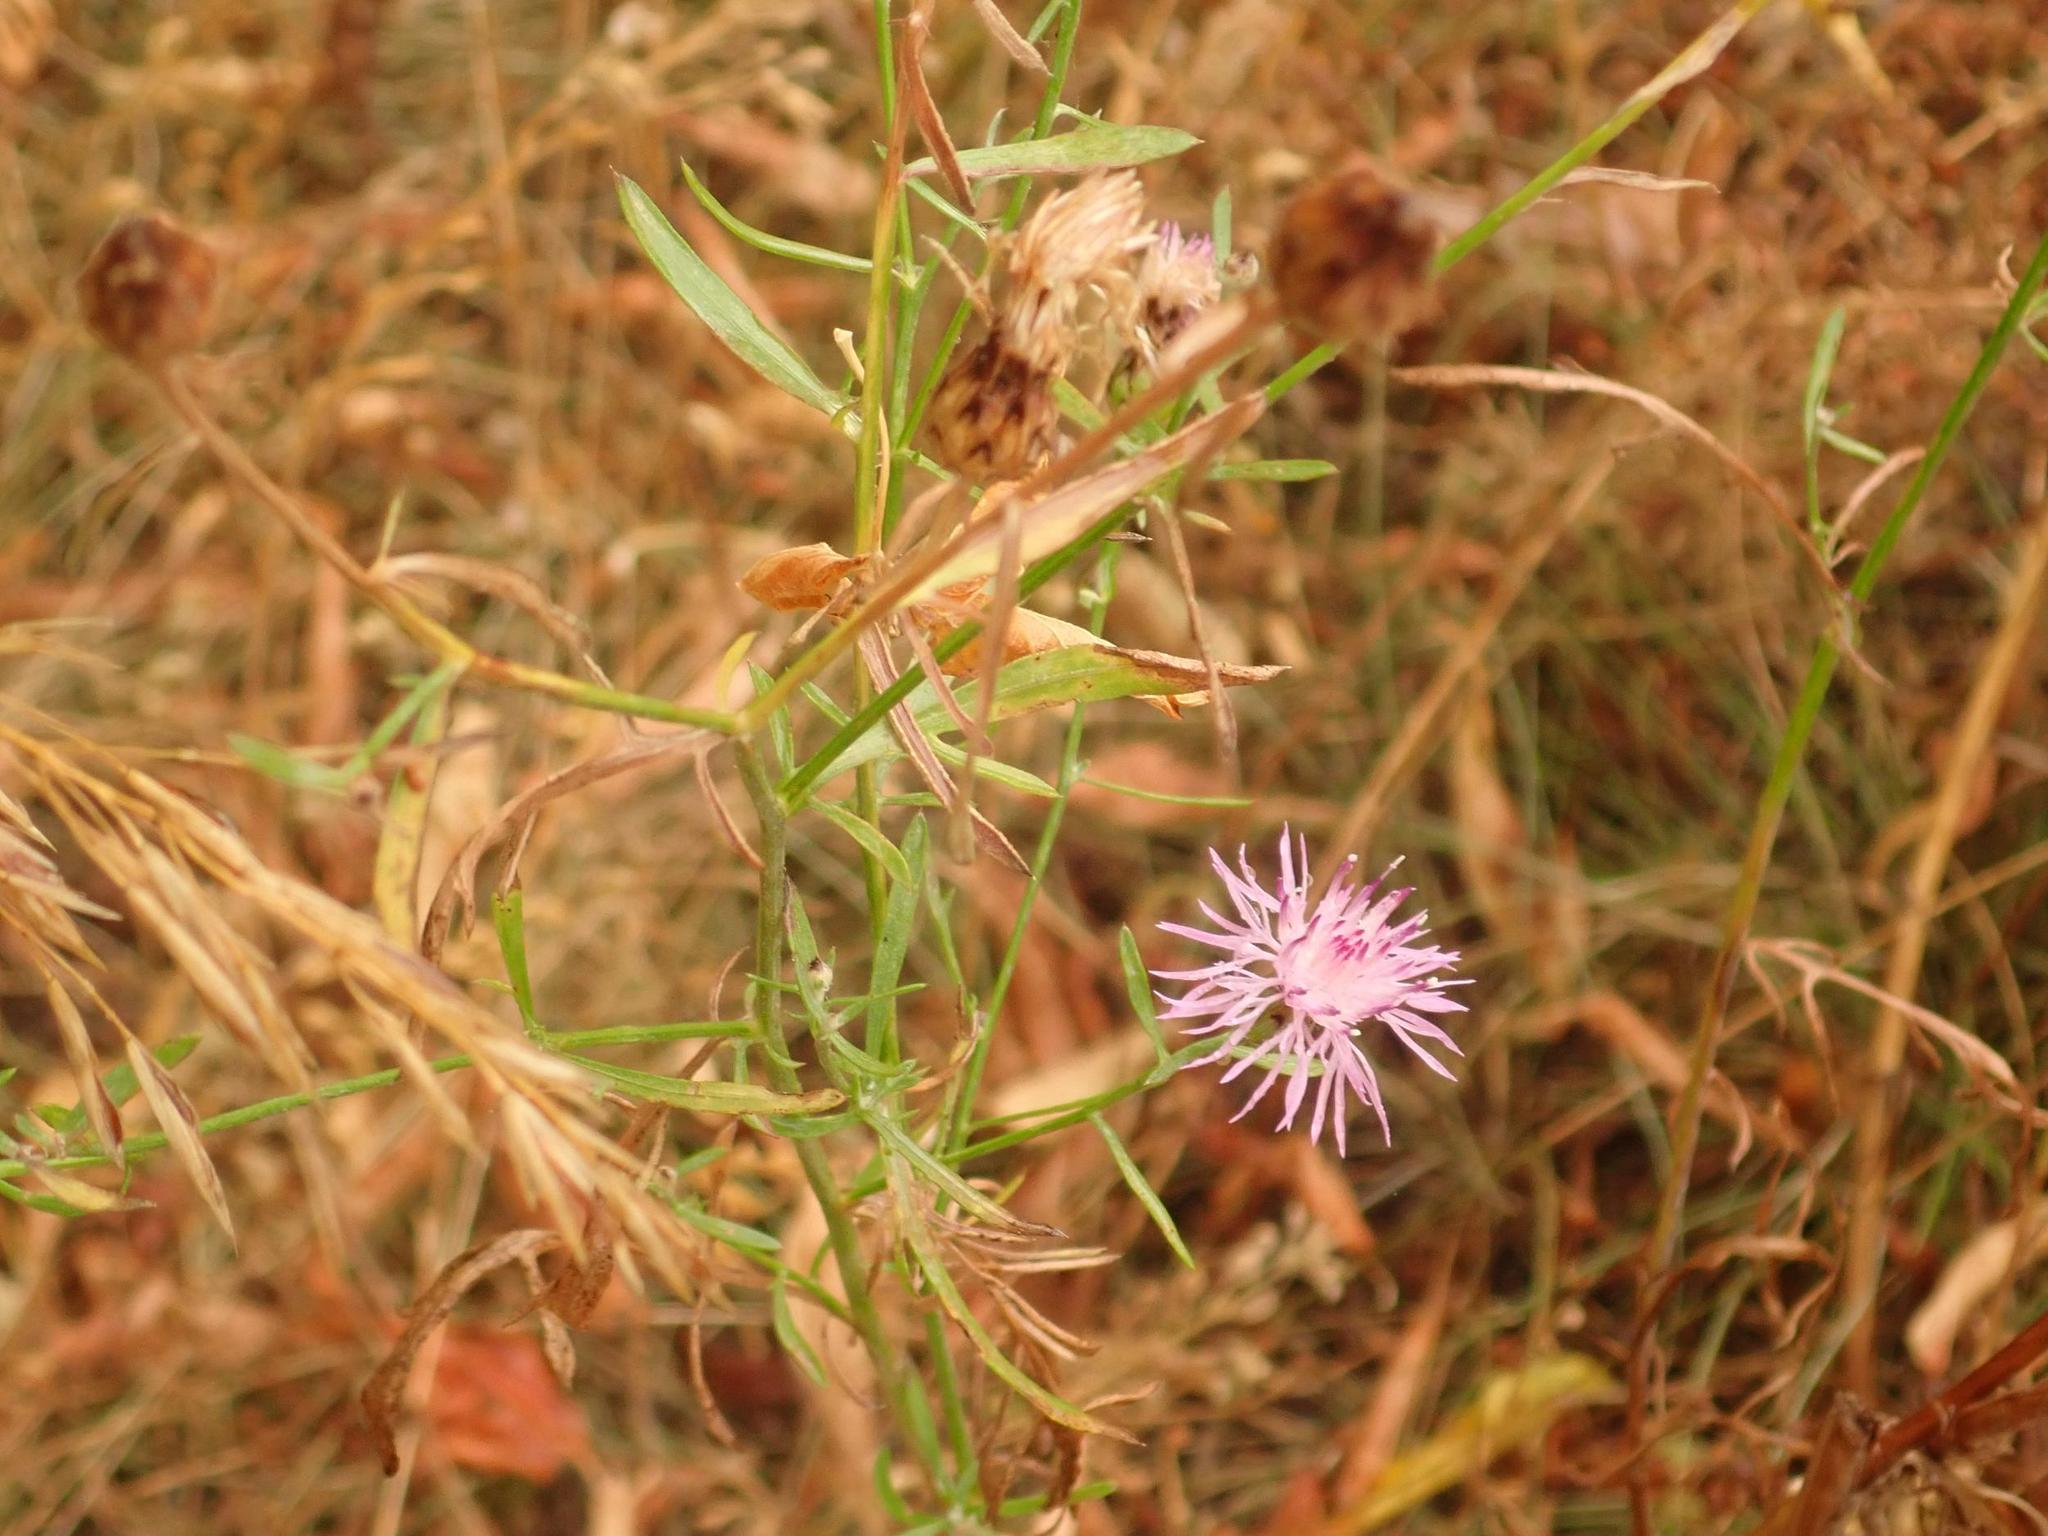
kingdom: Plantae
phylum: Tracheophyta
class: Magnoliopsida
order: Asterales
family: Asteraceae
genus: Centaurea
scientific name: Centaurea stoebe
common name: Spotted knapweed
